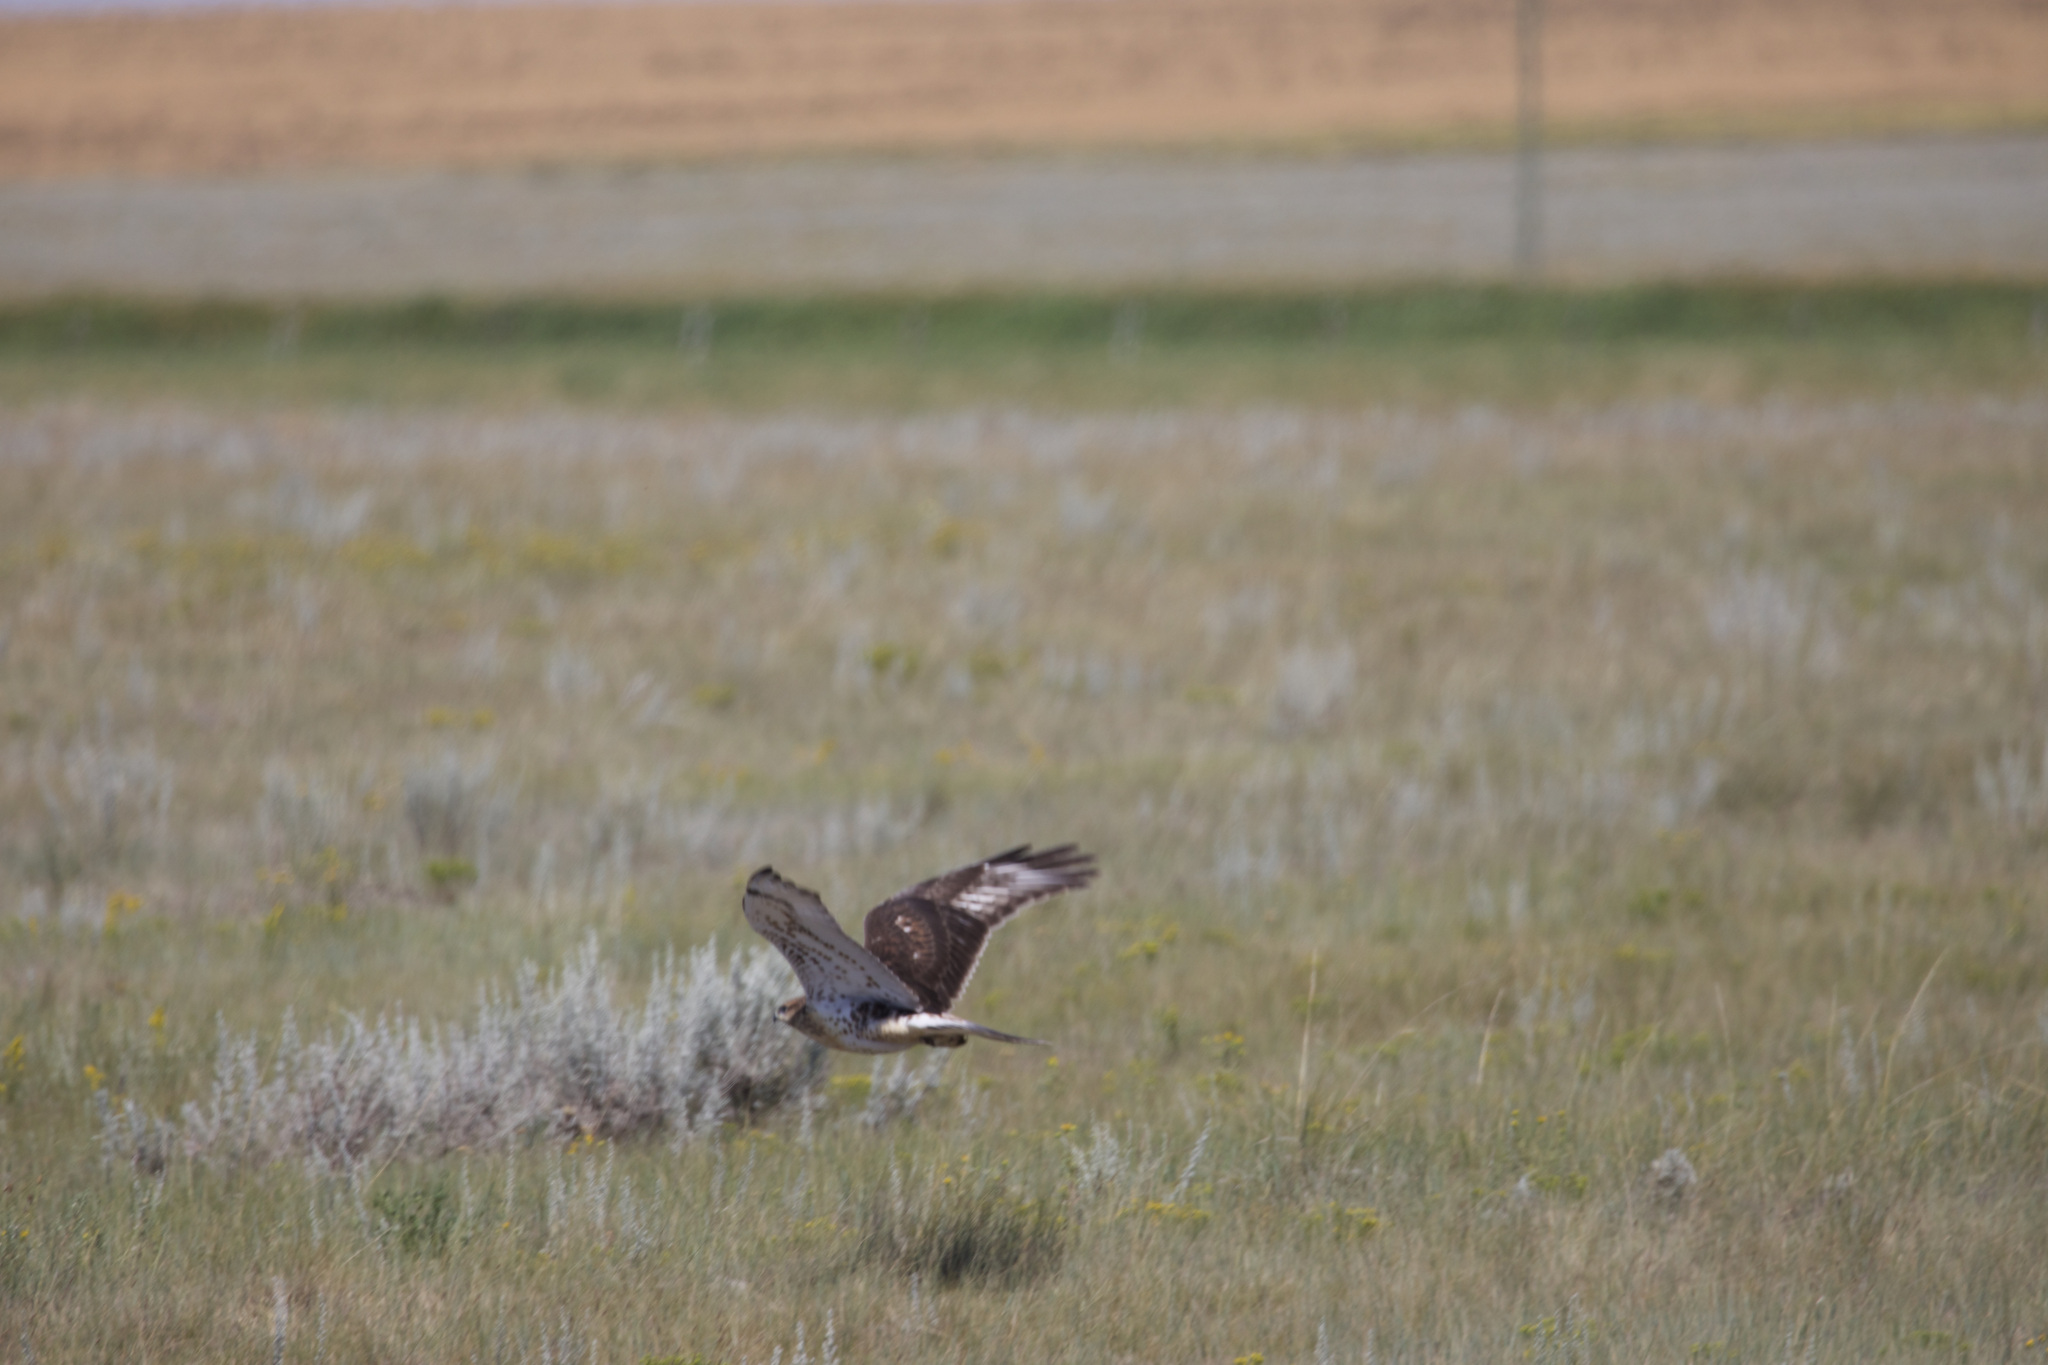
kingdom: Animalia
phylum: Chordata
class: Aves
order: Accipitriformes
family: Accipitridae
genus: Buteo
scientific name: Buteo regalis
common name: Ferruginous hawk
